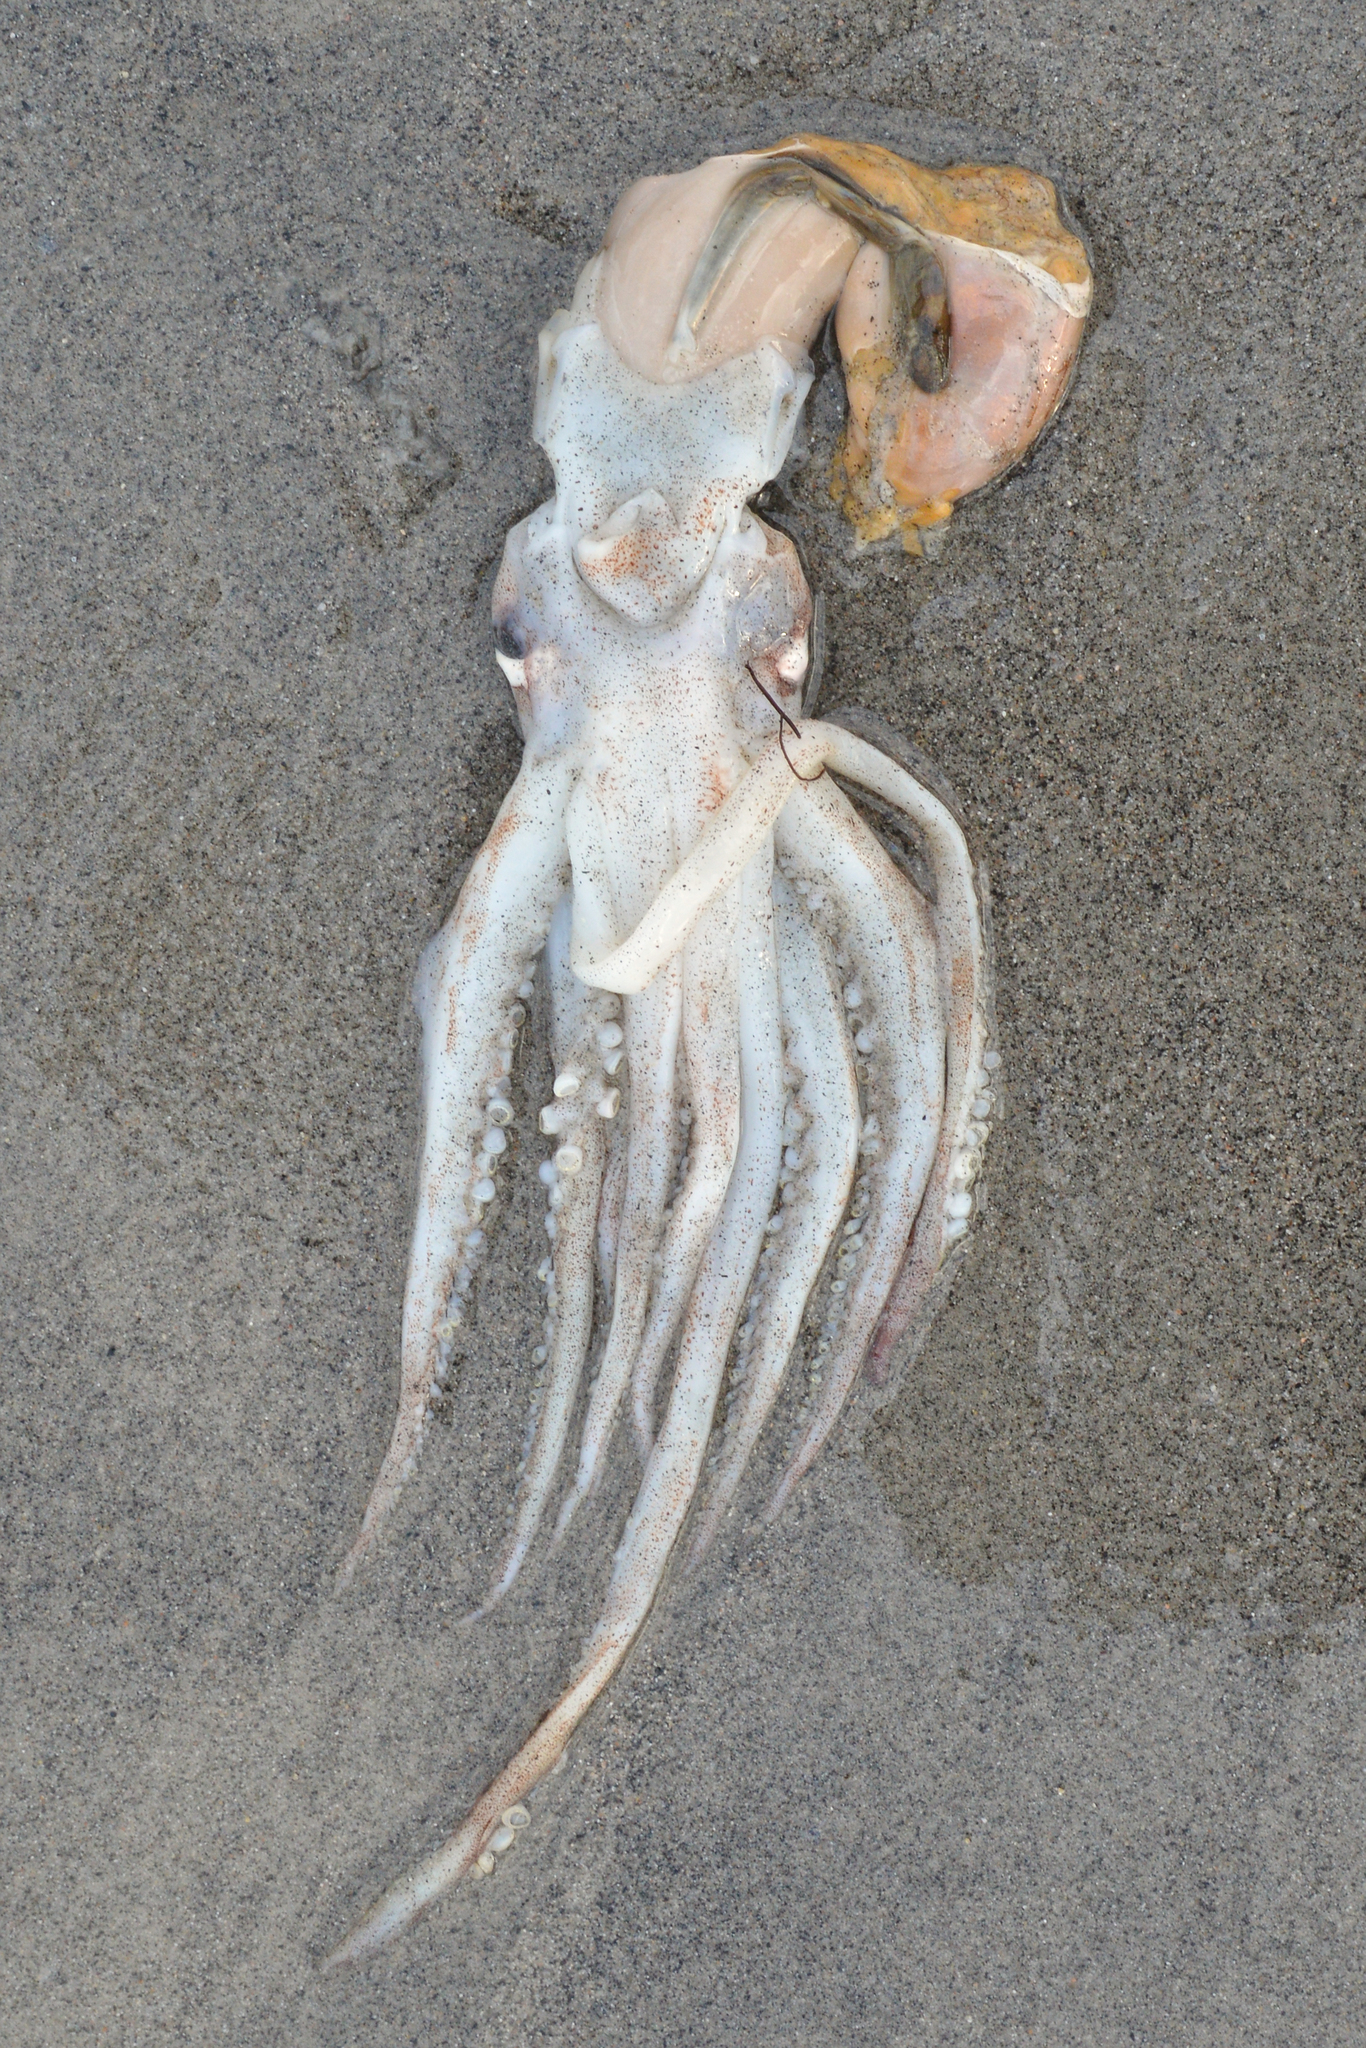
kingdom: Animalia
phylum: Mollusca
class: Cephalopoda
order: Oegopsida
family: Ommastrephidae
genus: Illex
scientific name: Illex illecebrosus
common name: Boreal squid
